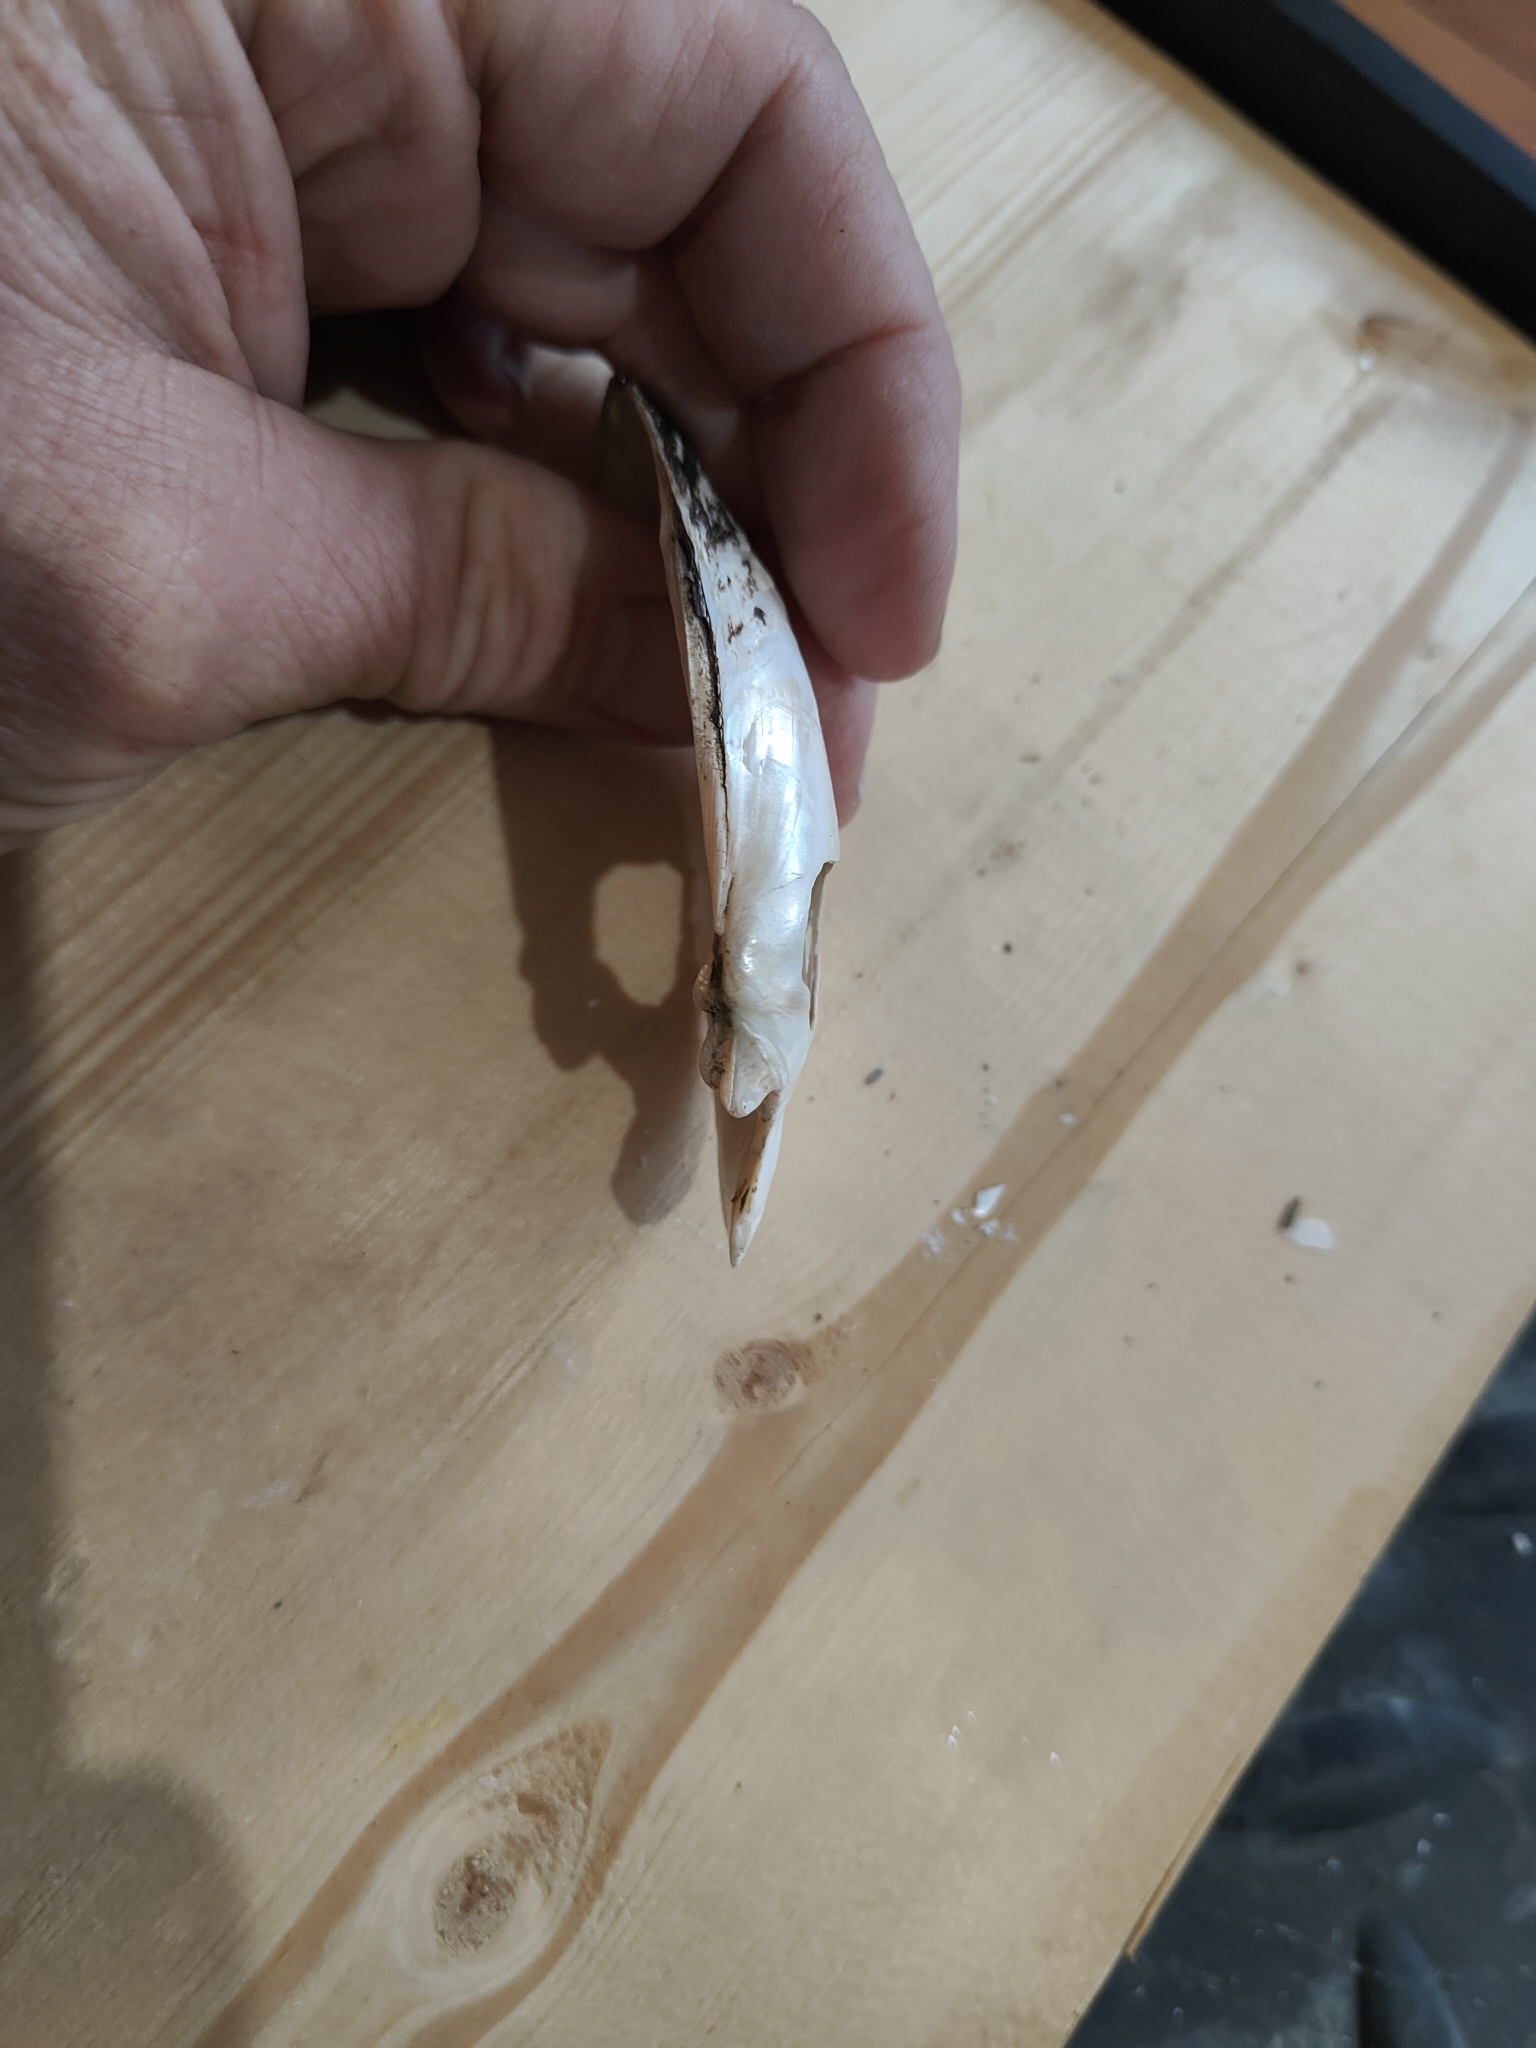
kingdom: Animalia
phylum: Mollusca
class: Bivalvia
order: Unionida
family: Unionidae
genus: Lampsilis
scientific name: Lampsilis siliquoidea
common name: Fatmucket
